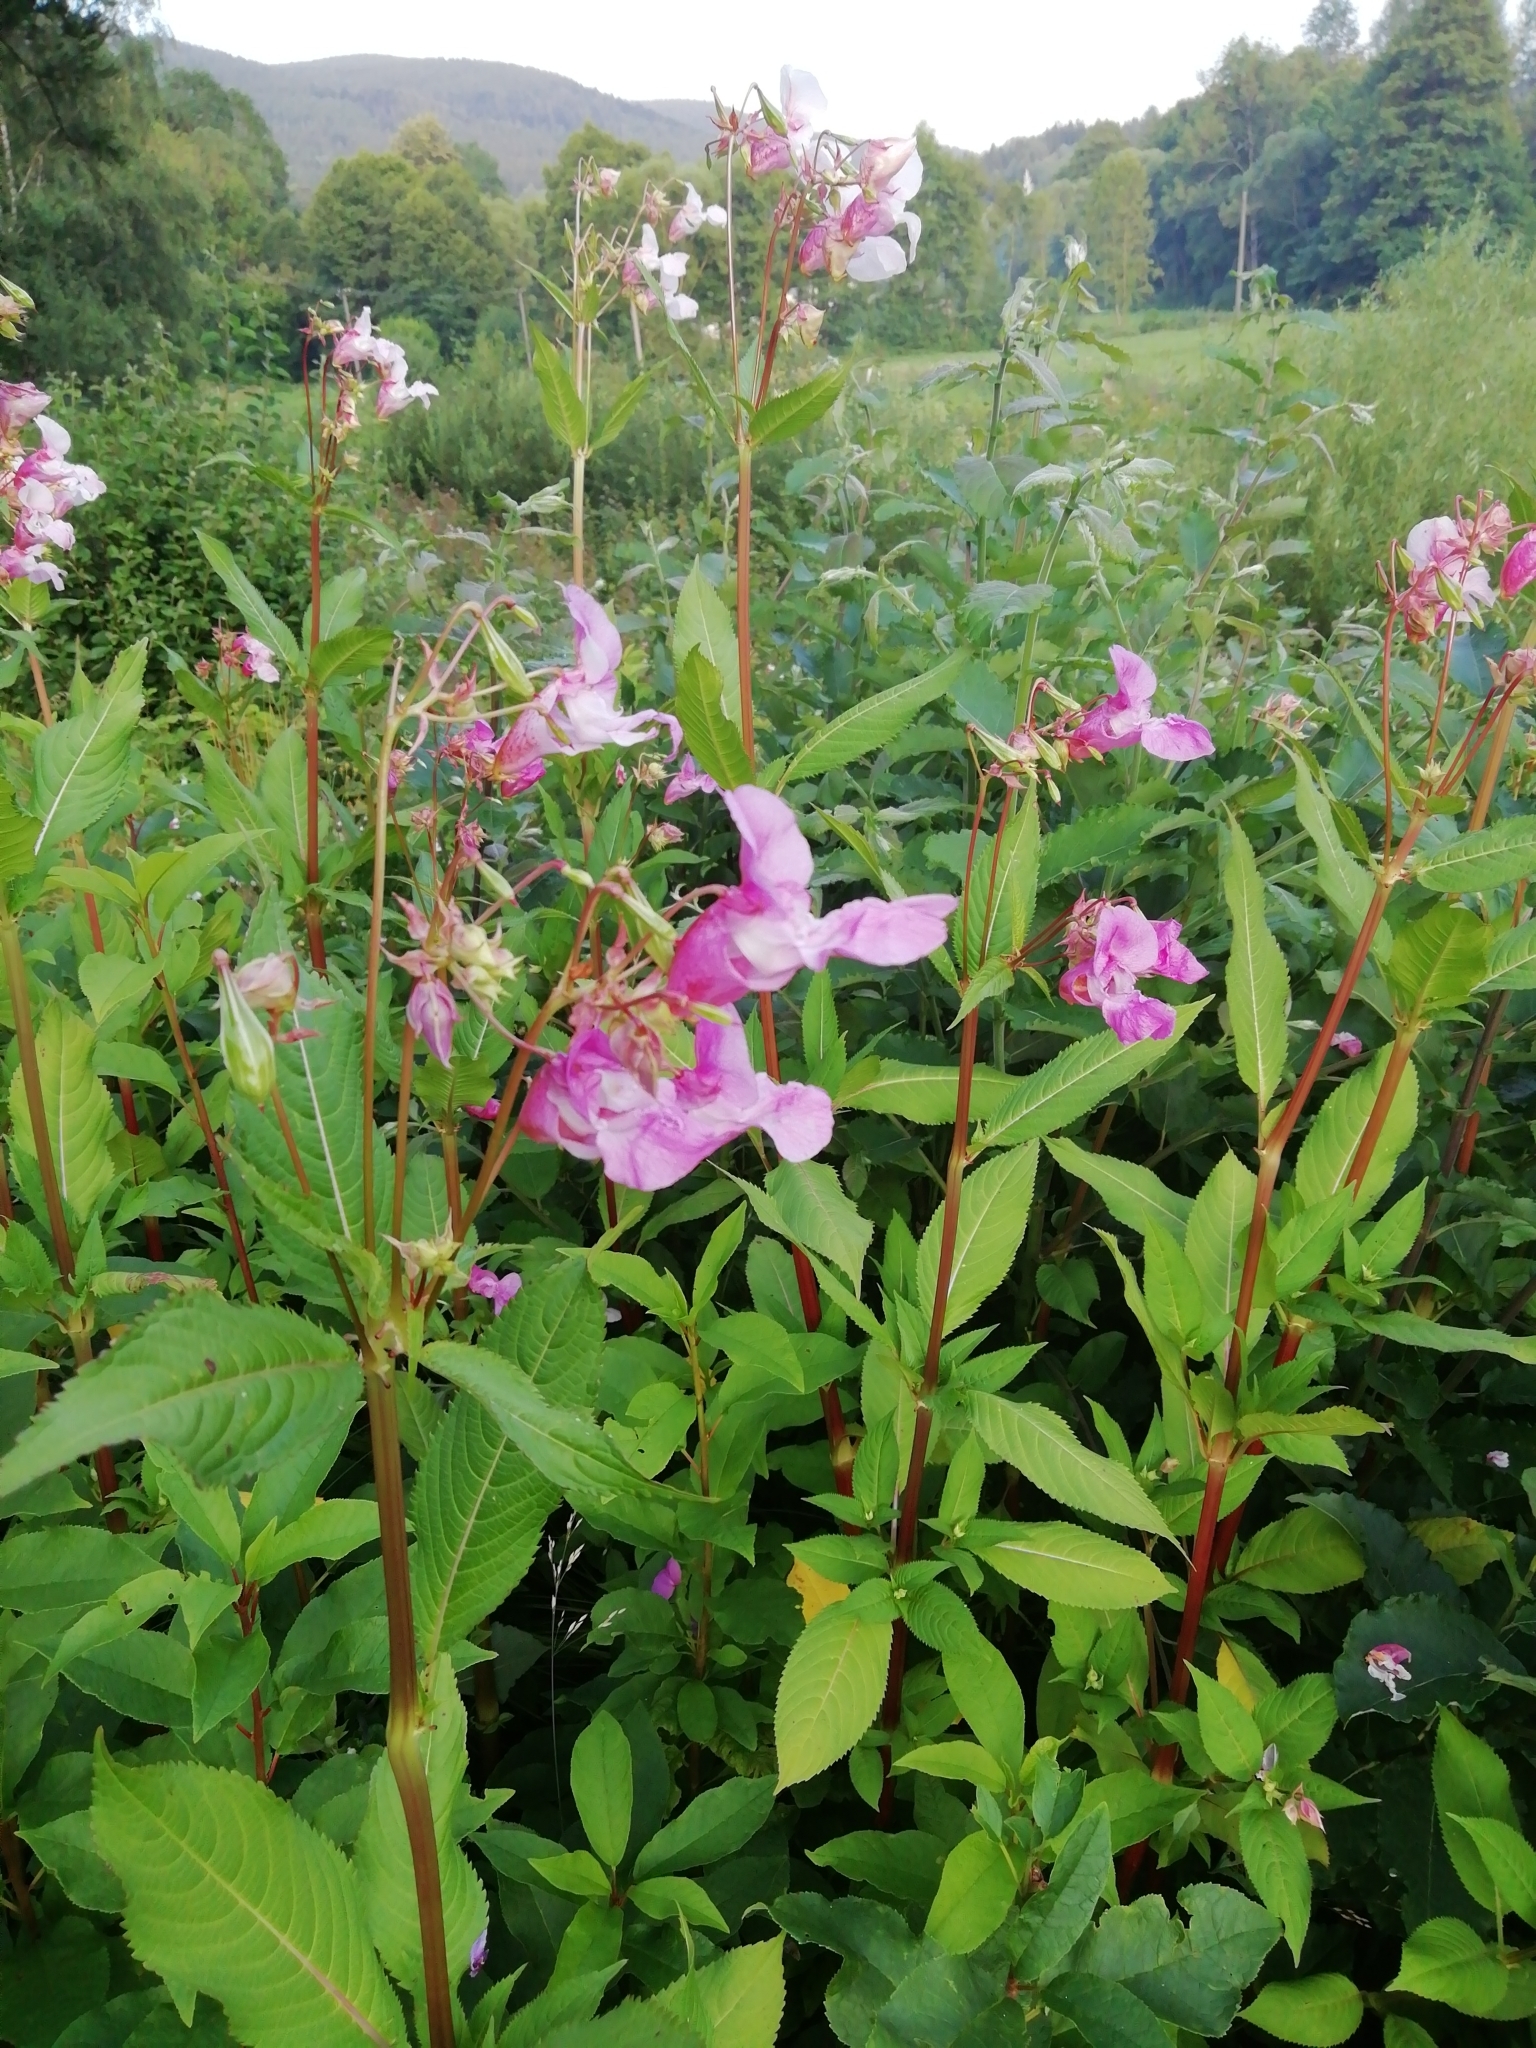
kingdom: Plantae
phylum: Tracheophyta
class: Magnoliopsida
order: Ericales
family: Balsaminaceae
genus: Impatiens
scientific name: Impatiens glandulifera
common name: Himalayan balsam
